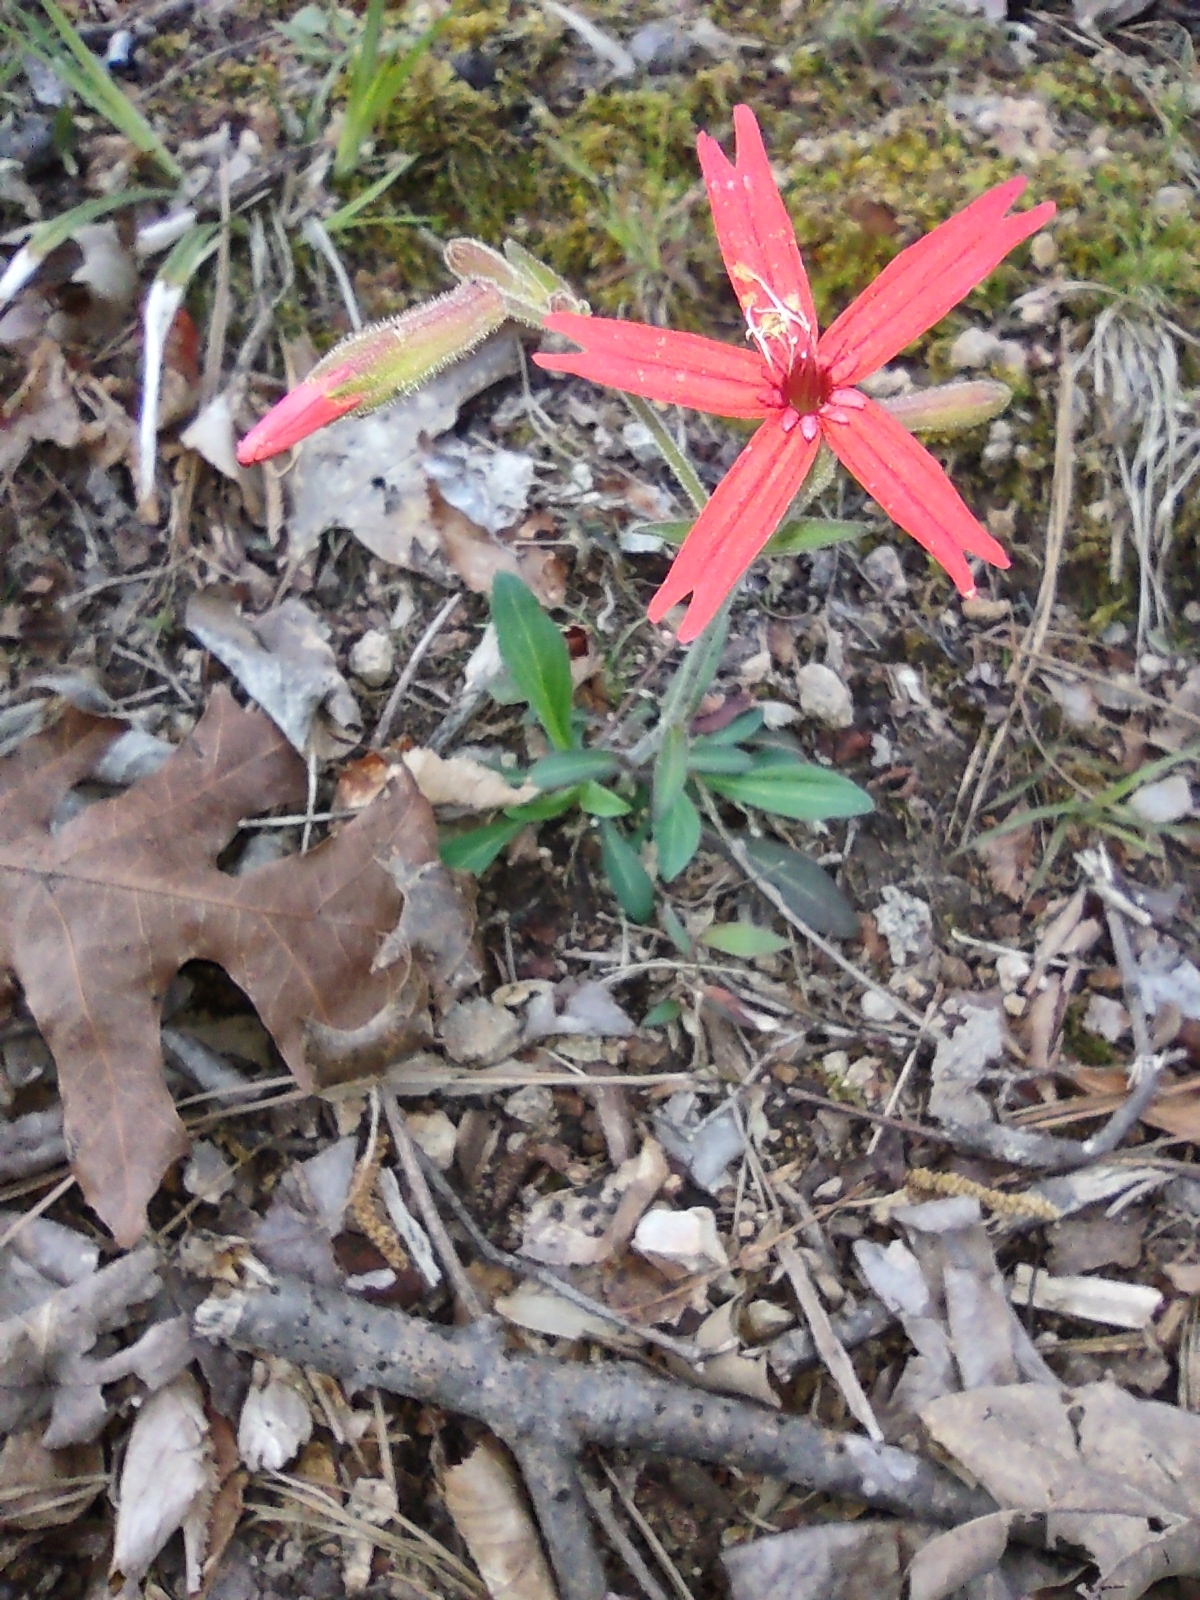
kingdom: Plantae
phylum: Tracheophyta
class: Magnoliopsida
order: Caryophyllales
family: Caryophyllaceae
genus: Silene
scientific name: Silene virginica
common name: Fire-pink
